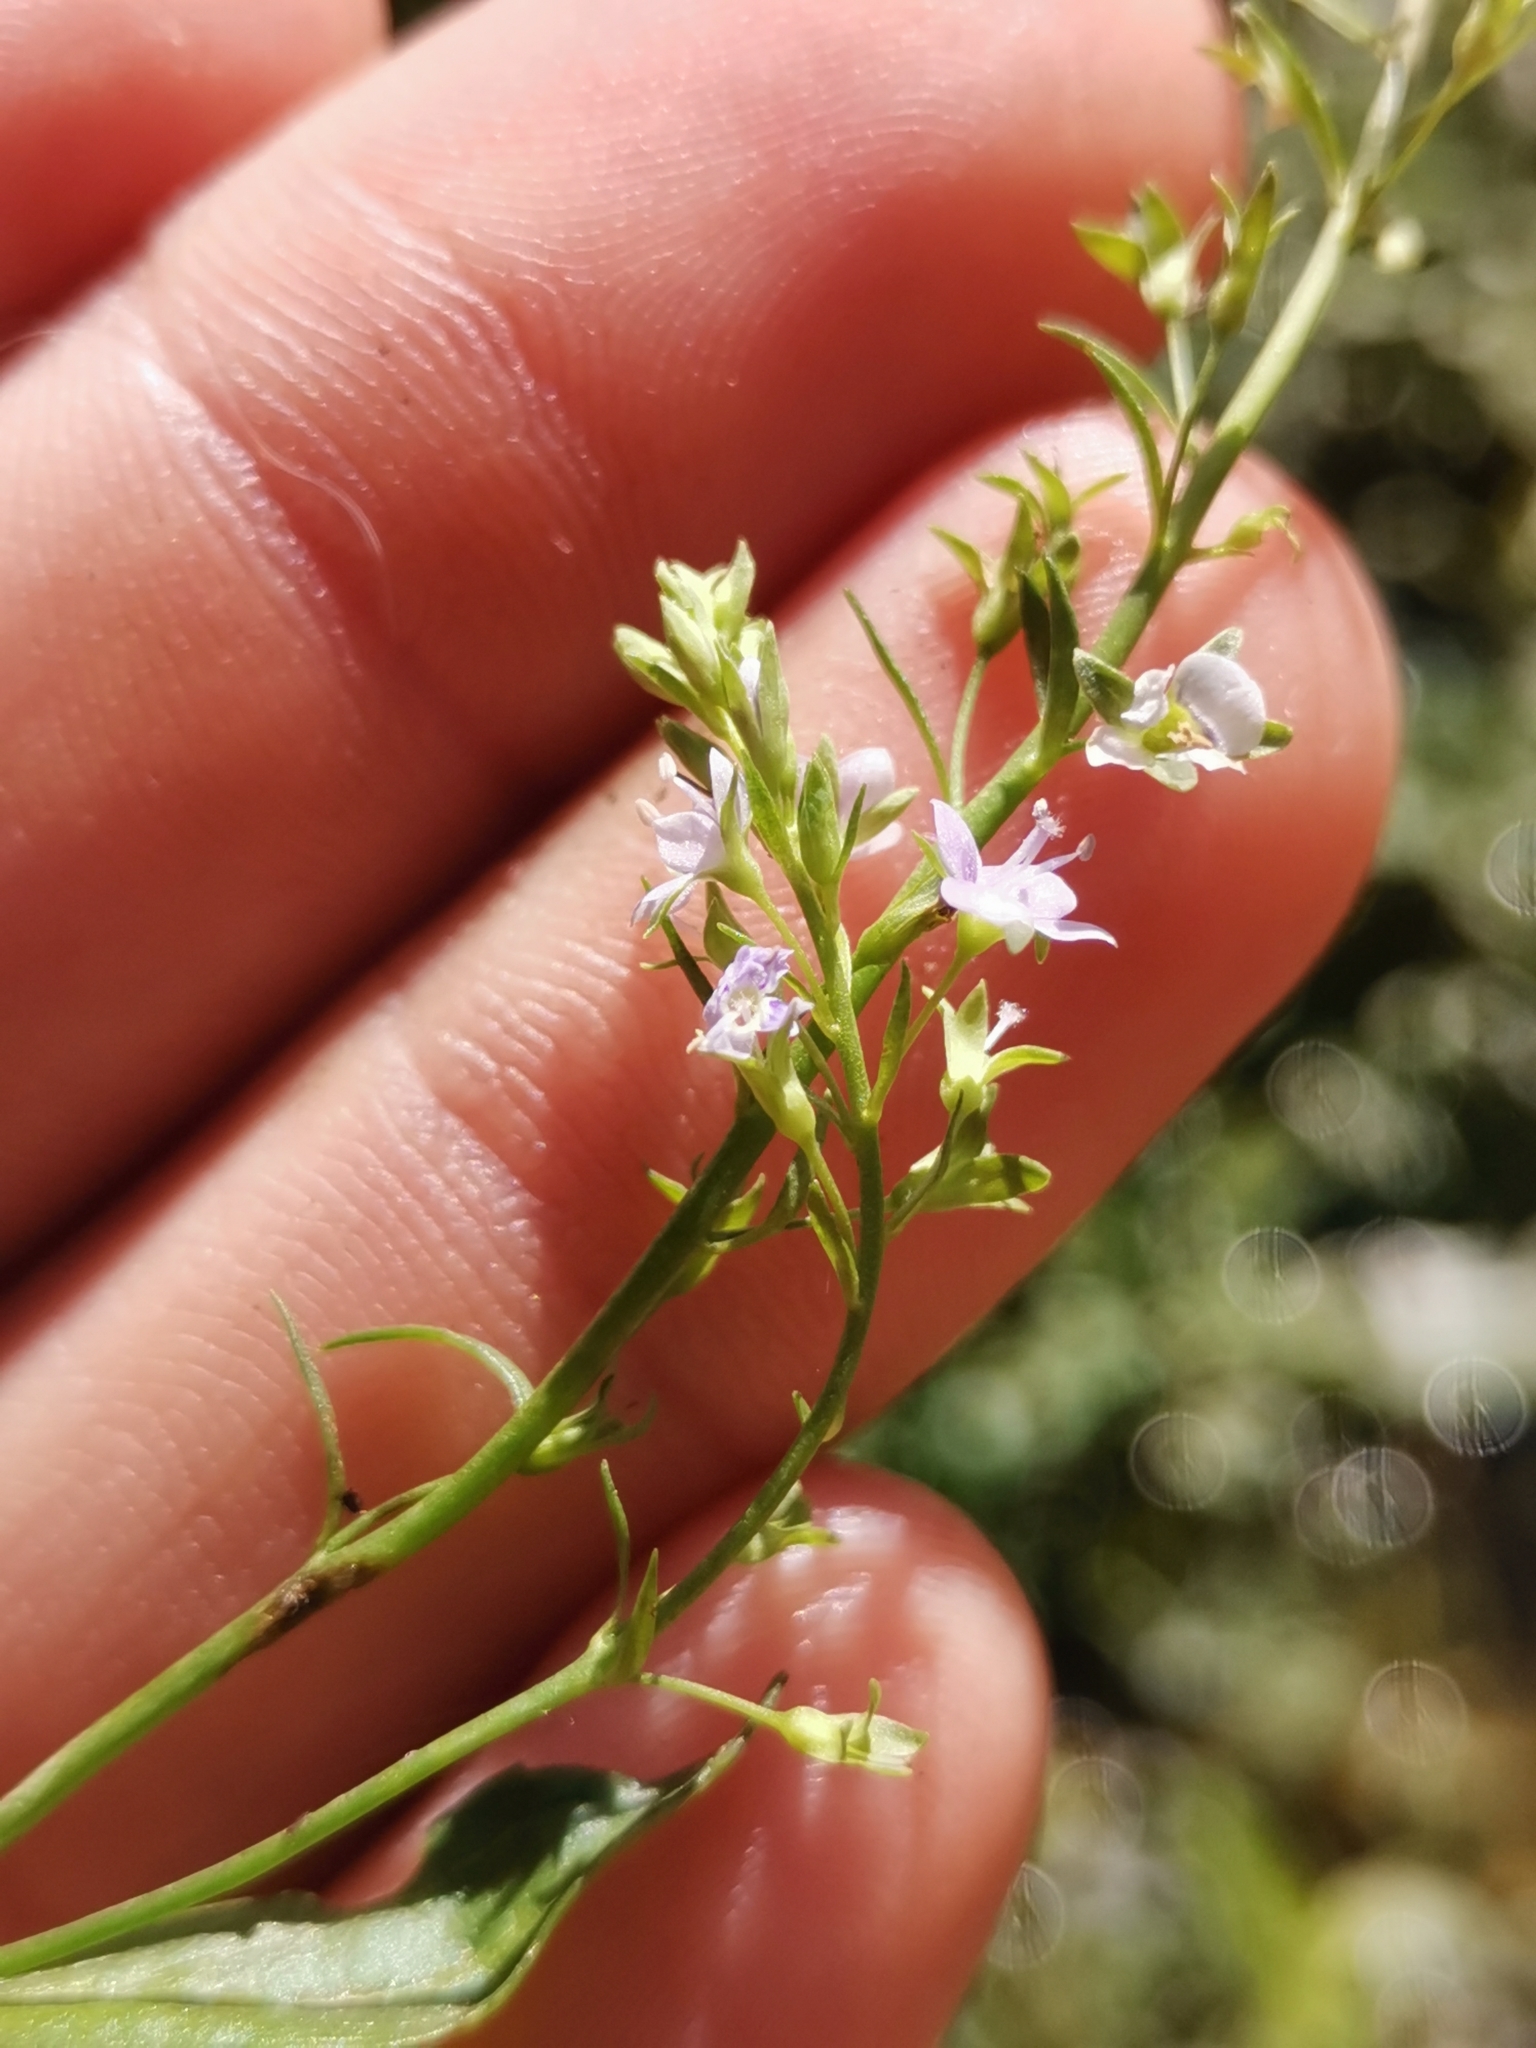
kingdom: Plantae
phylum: Tracheophyta
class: Magnoliopsida
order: Lamiales
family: Plantaginaceae
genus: Veronica
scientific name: Veronica anagallis-aquatica
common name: Water speedwell
